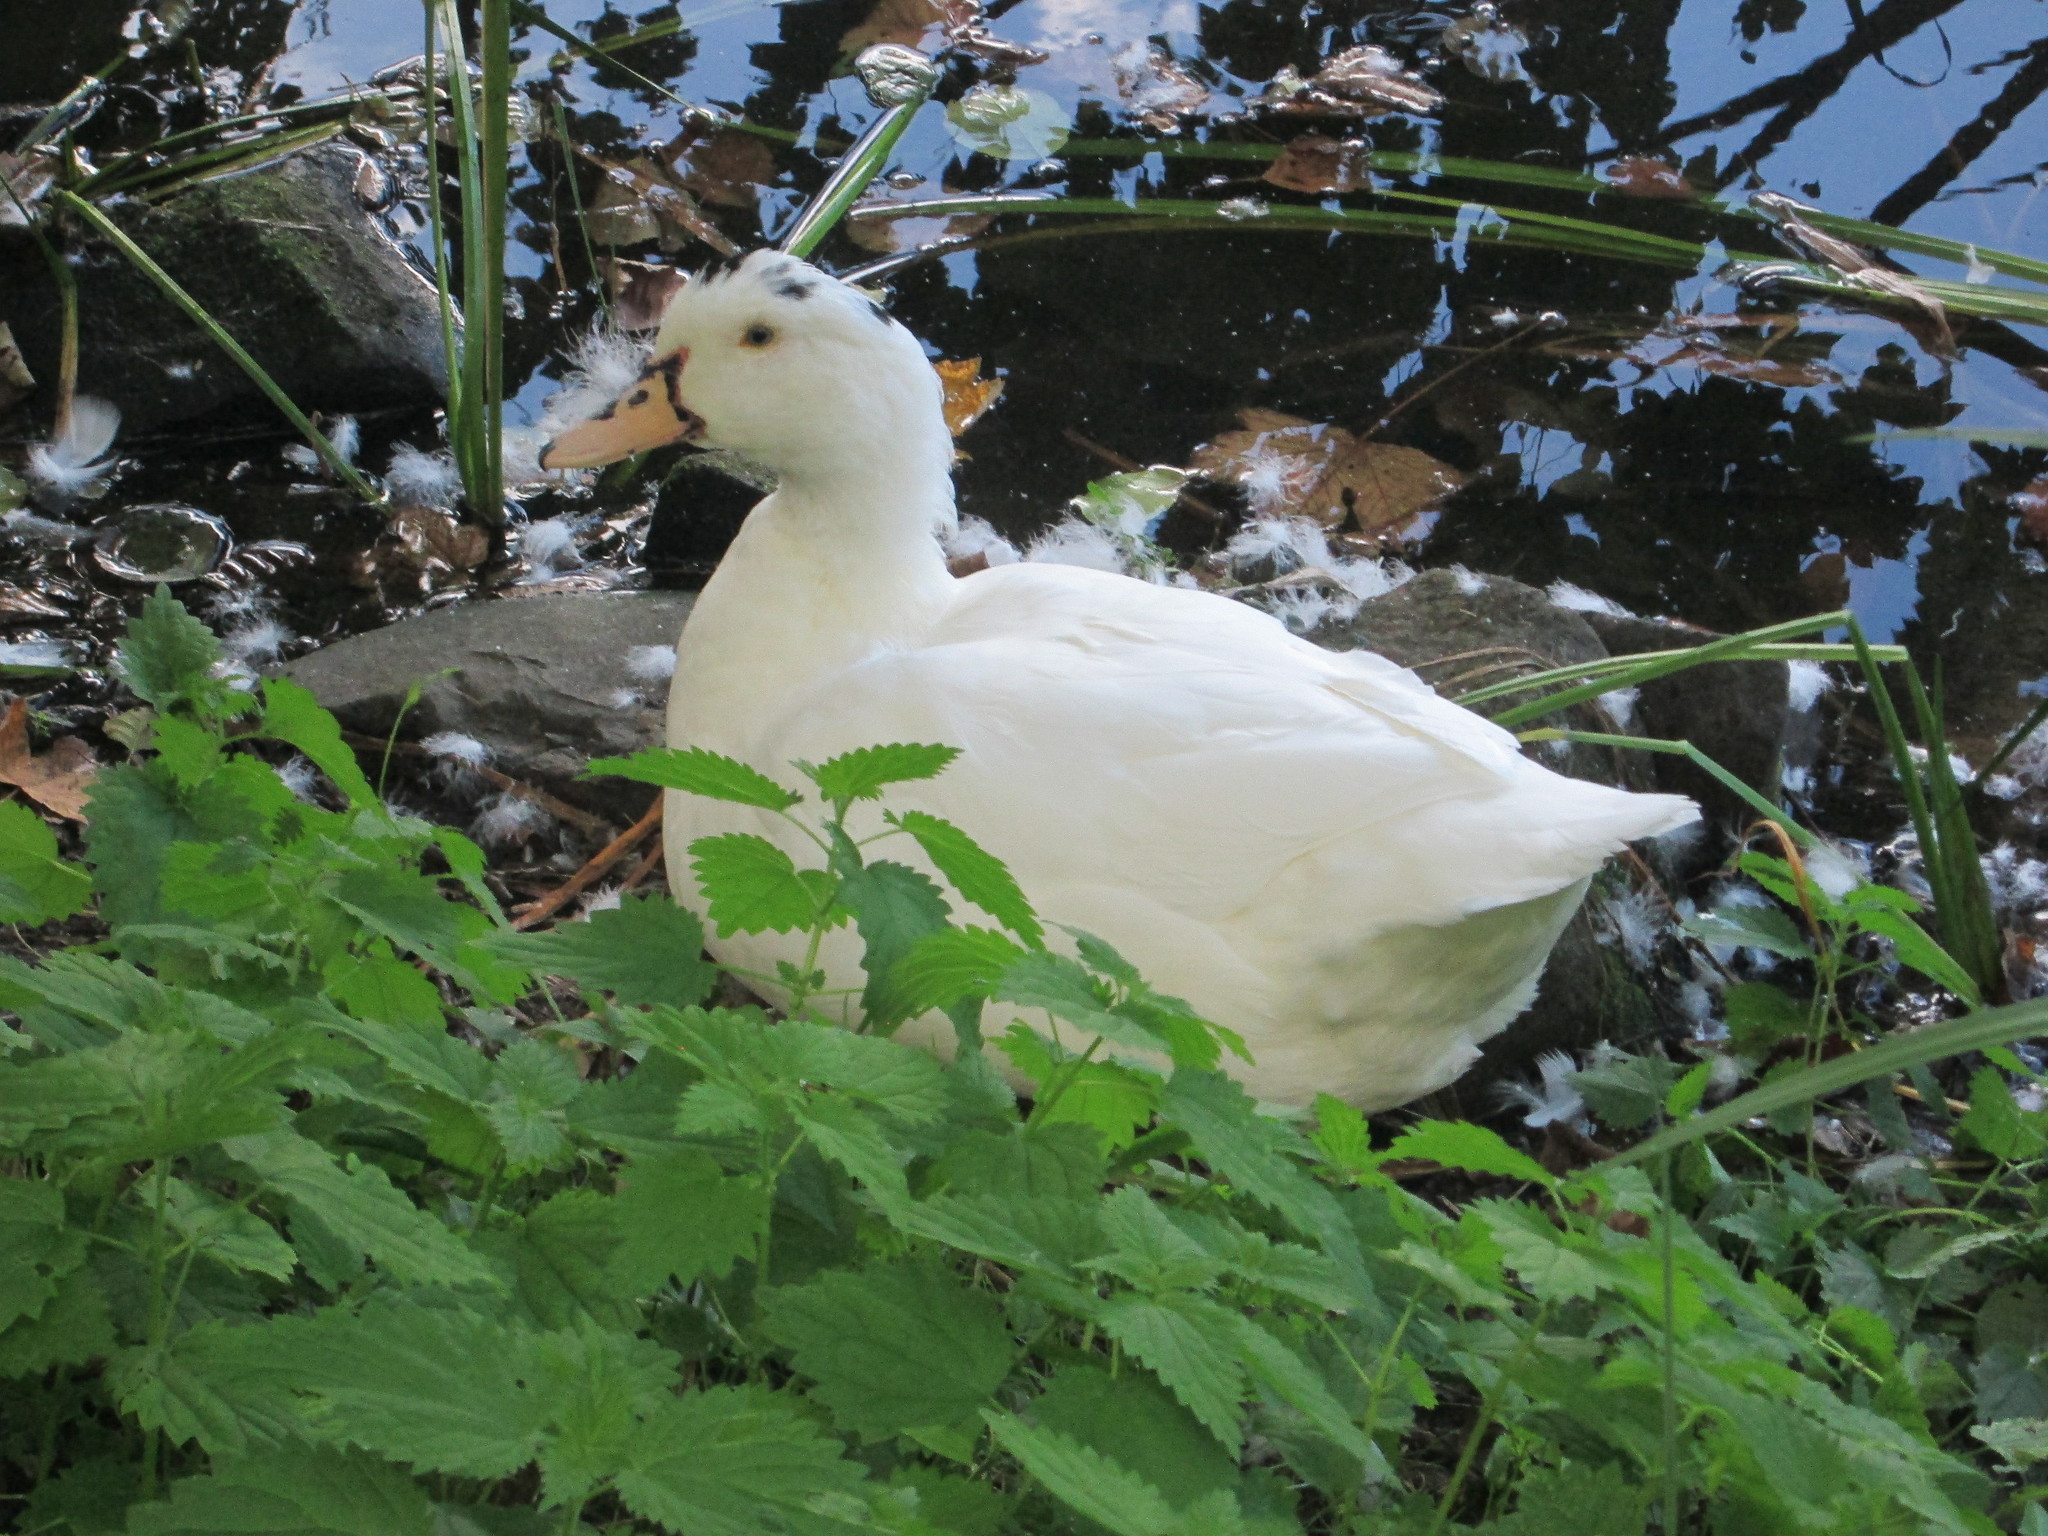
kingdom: Animalia
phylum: Chordata
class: Aves
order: Anseriformes
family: Anatidae
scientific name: Anatidae
